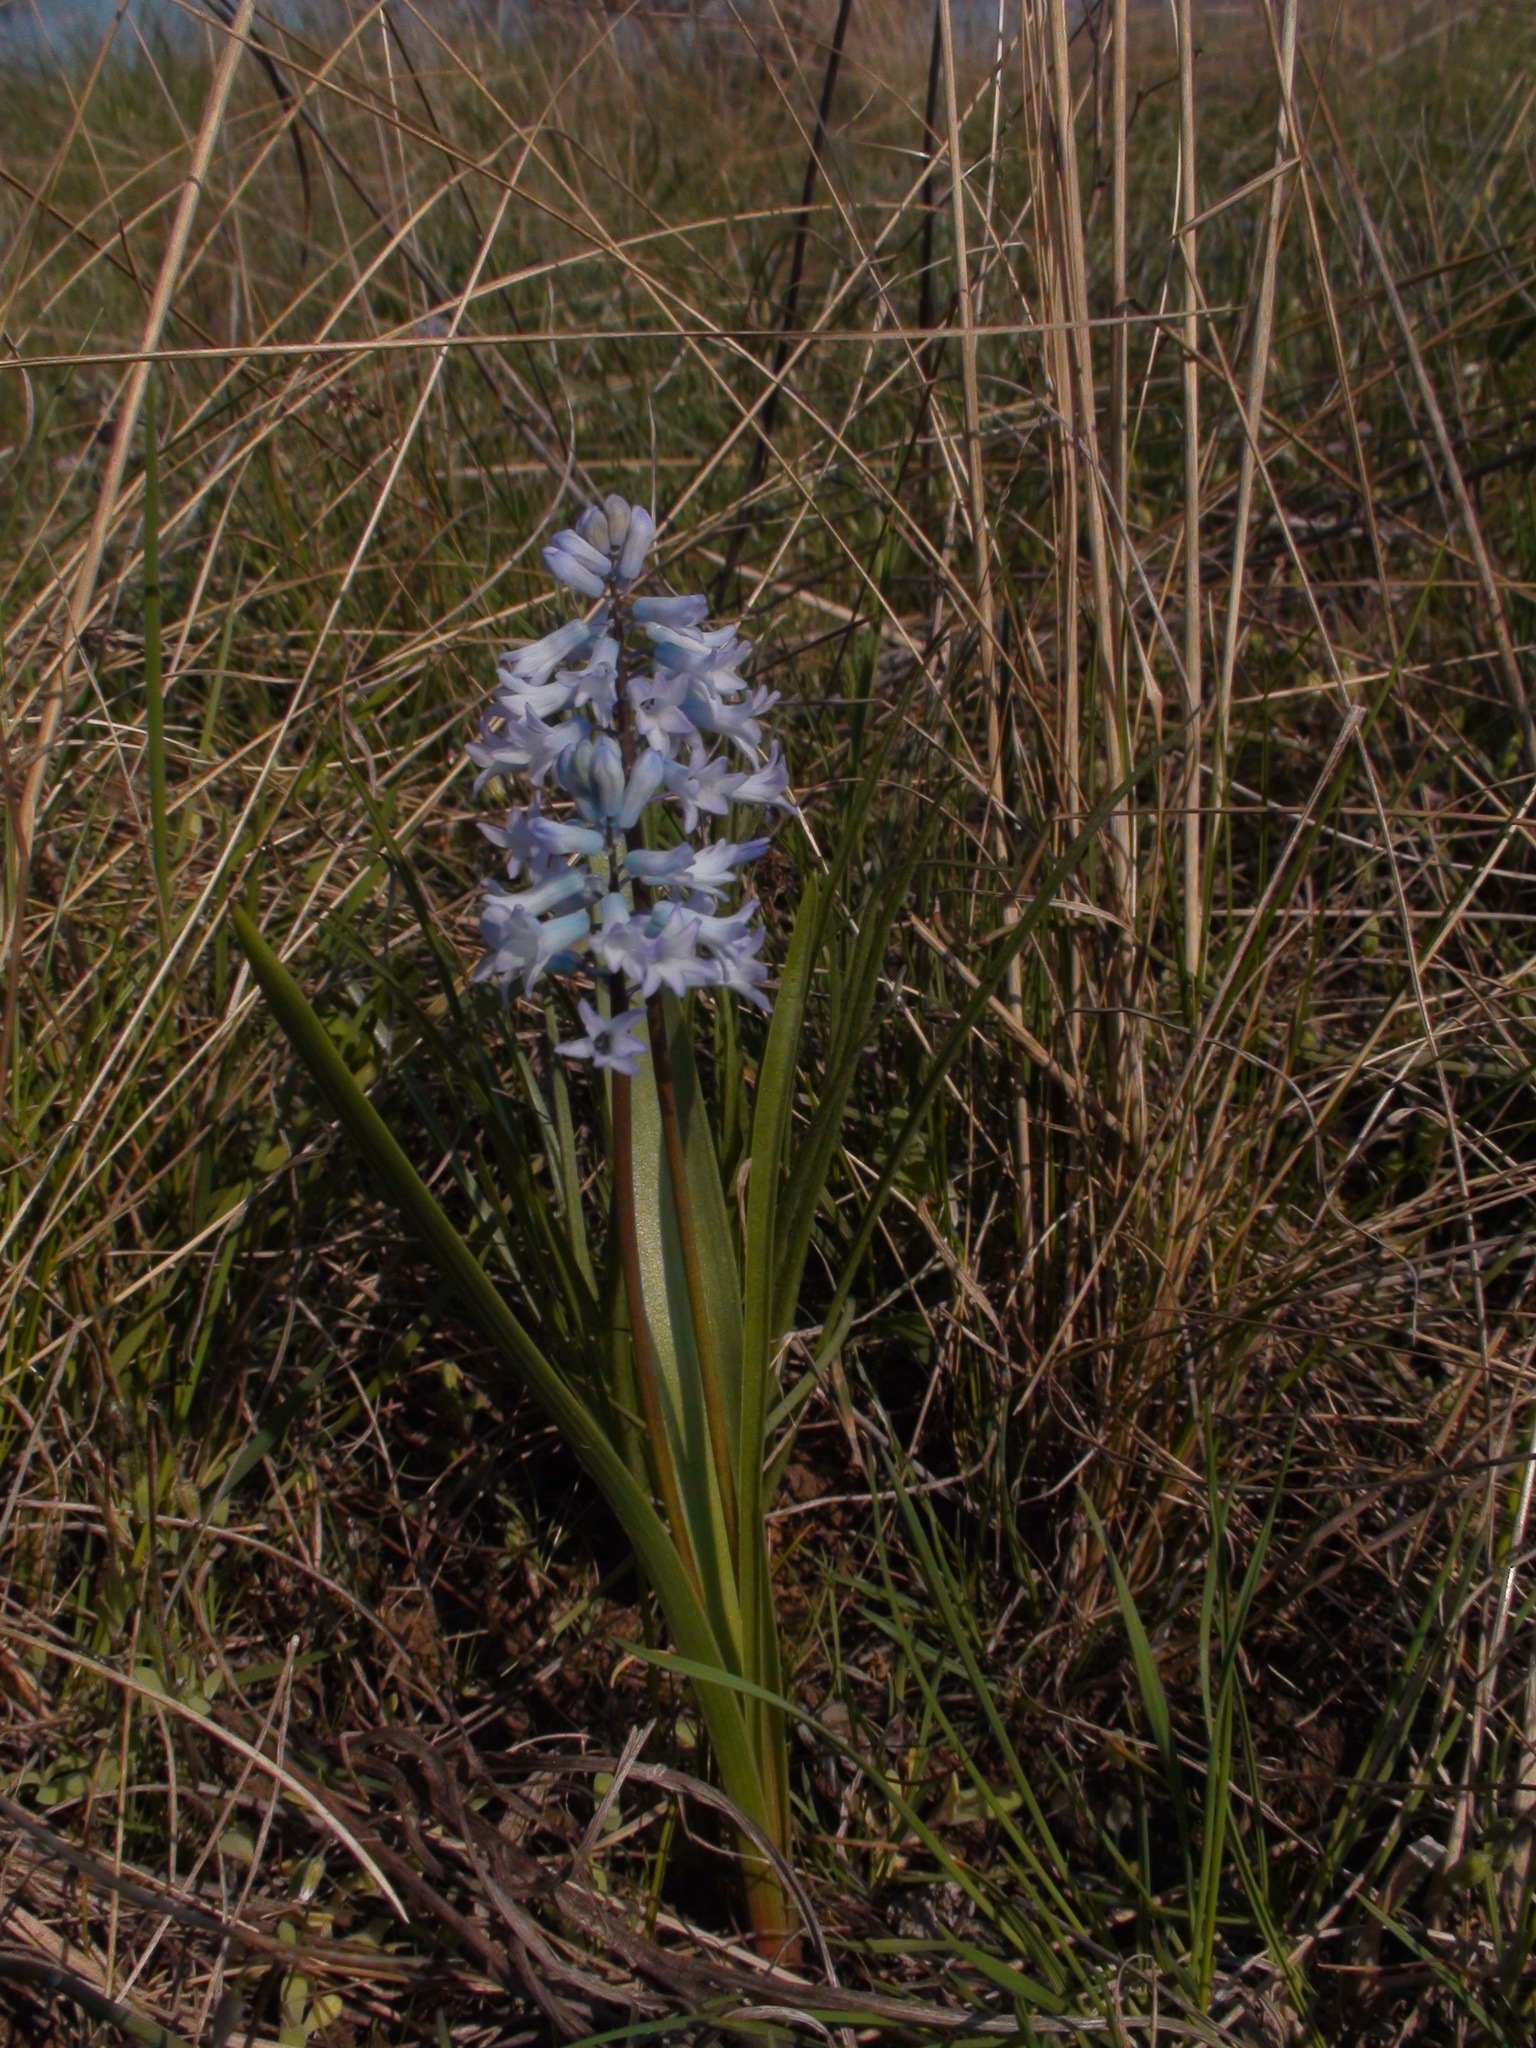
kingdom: Plantae
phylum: Tracheophyta
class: Liliopsida
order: Asparagales
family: Asparagaceae
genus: Hyacinthella
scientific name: Hyacinthella pallasiana
